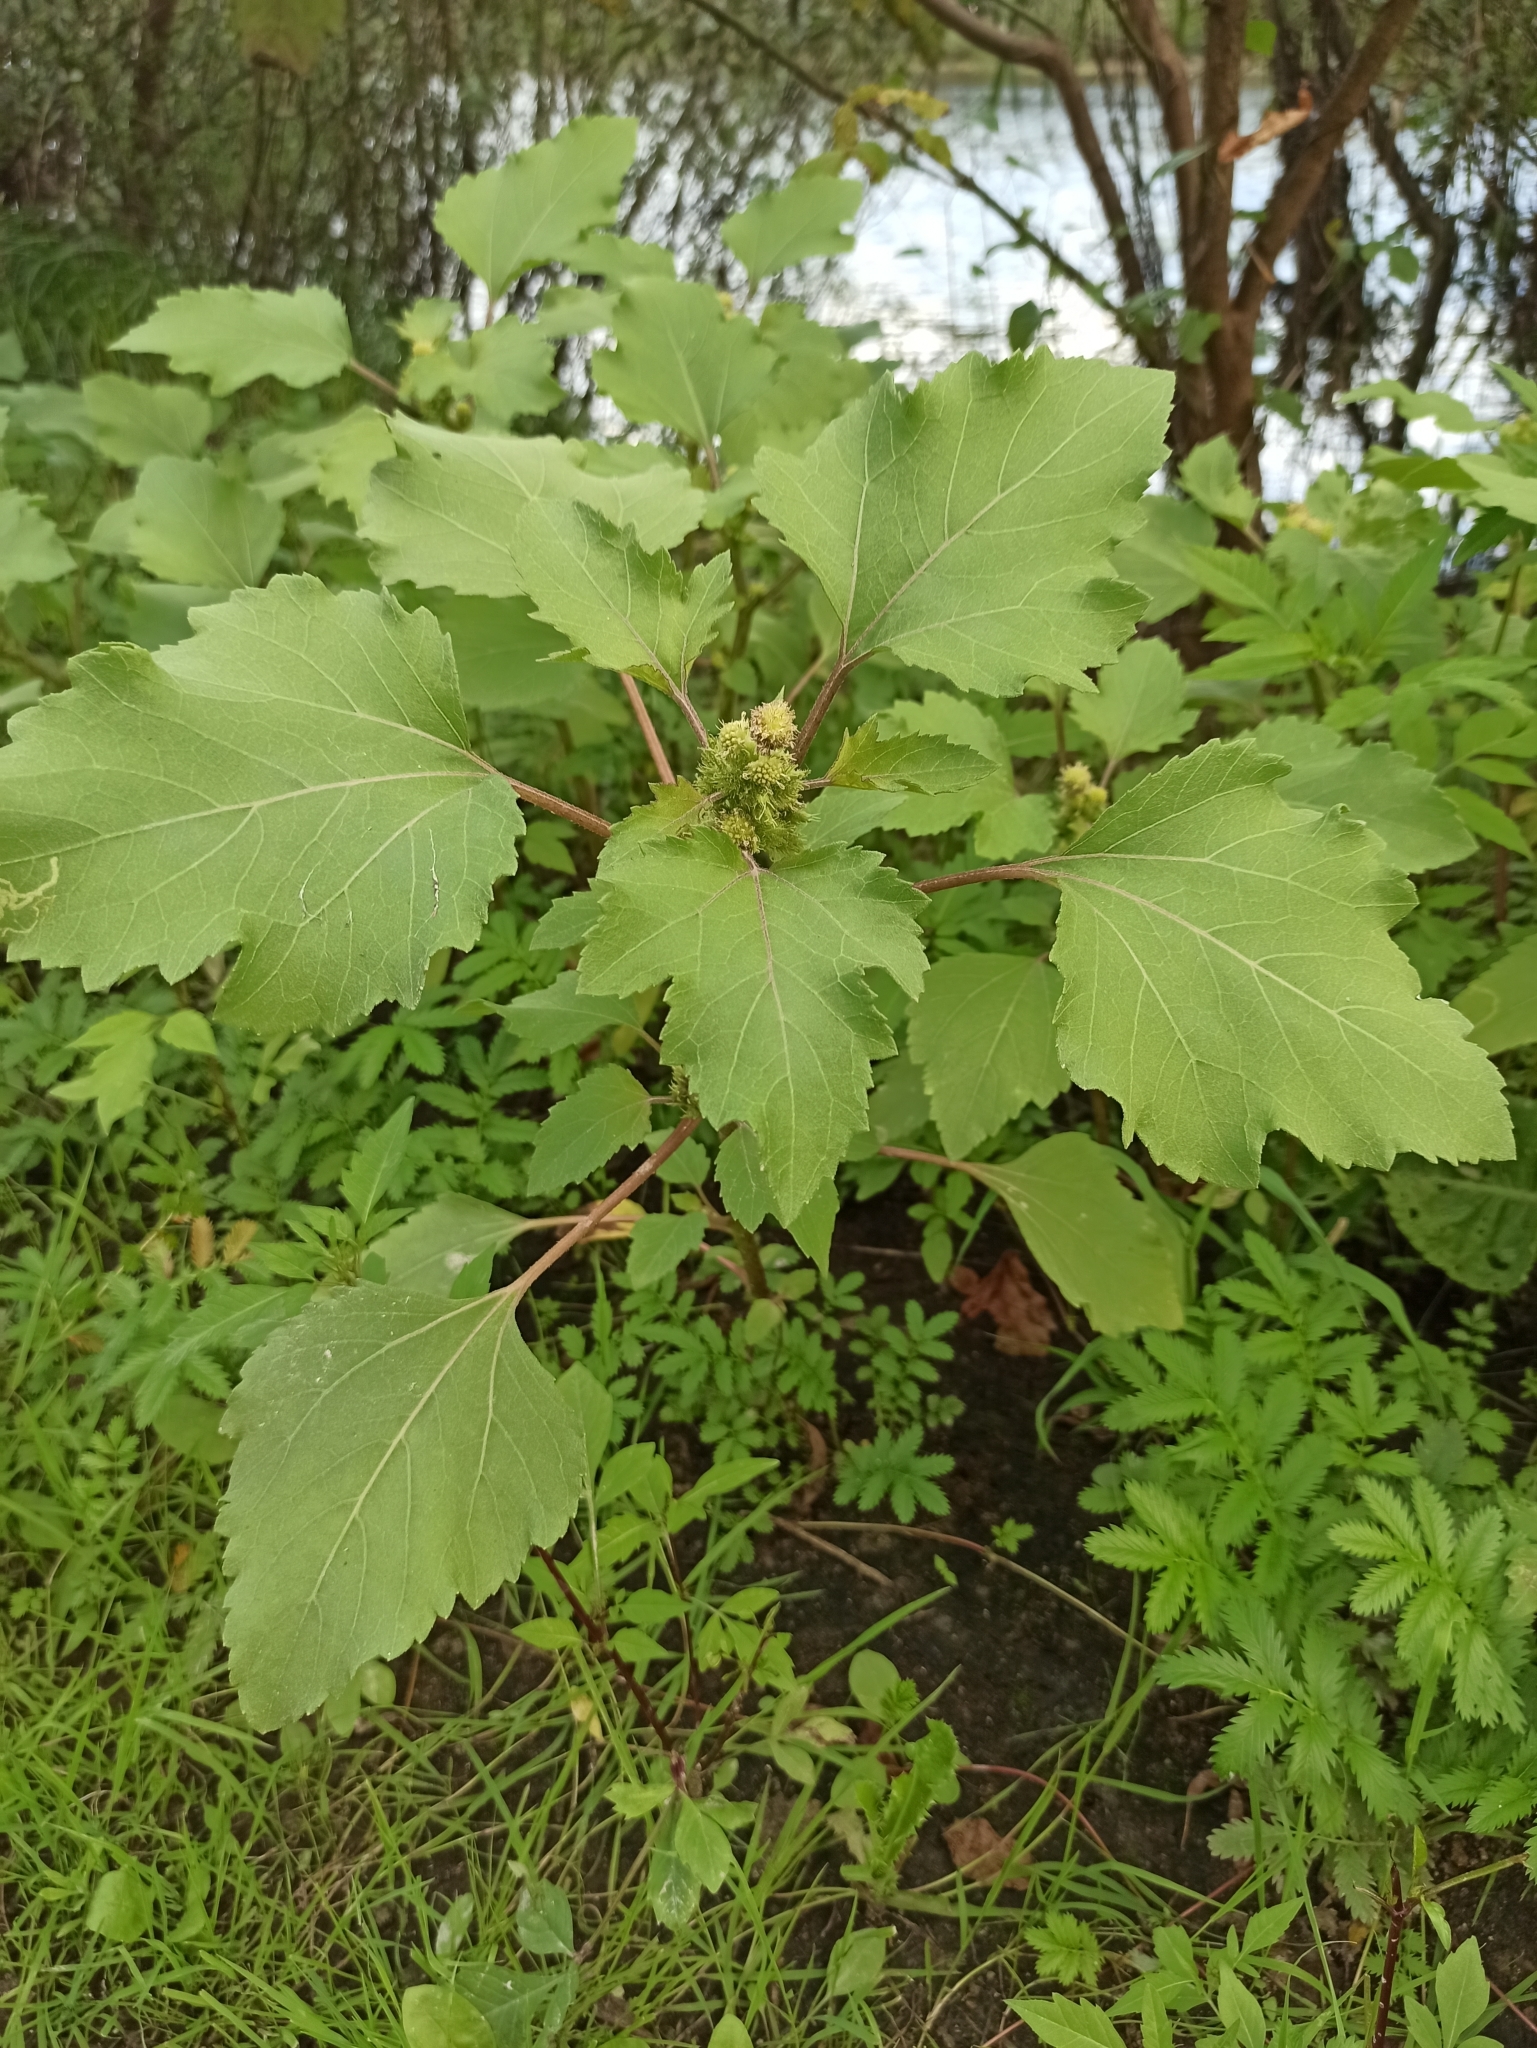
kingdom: Plantae
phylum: Tracheophyta
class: Magnoliopsida
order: Asterales
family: Asteraceae
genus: Xanthium
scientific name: Xanthium orientale
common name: Californian burr
